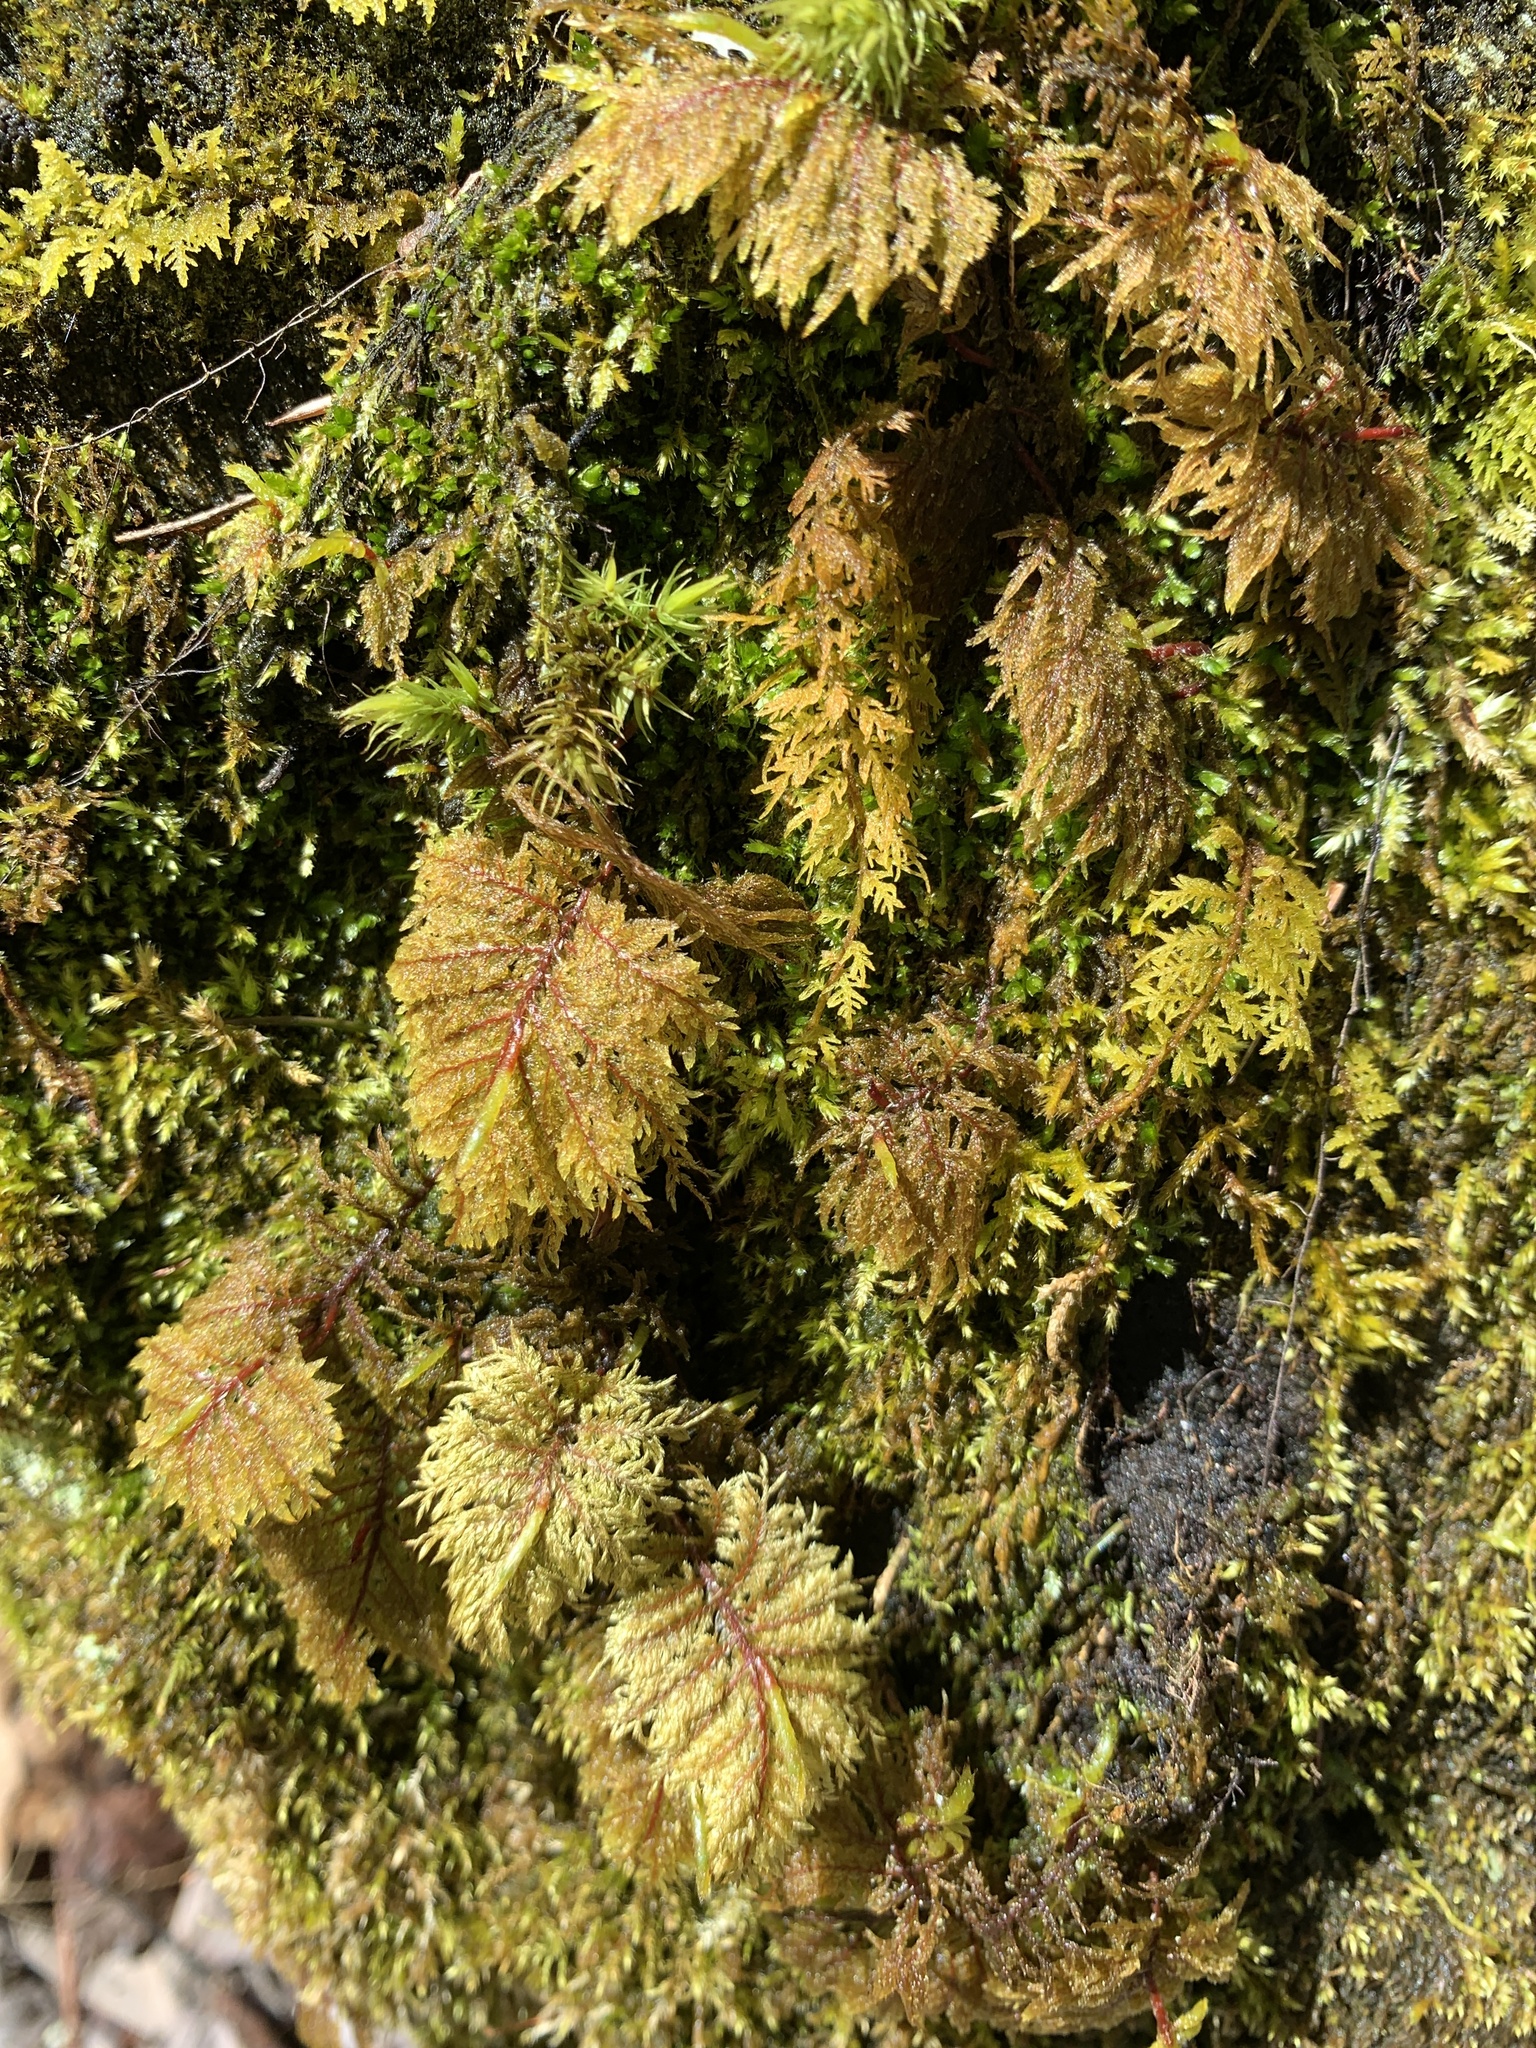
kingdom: Plantae
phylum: Bryophyta
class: Bryopsida
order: Hypnales
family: Hylocomiaceae
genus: Hylocomium
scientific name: Hylocomium splendens
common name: Stairstep moss
